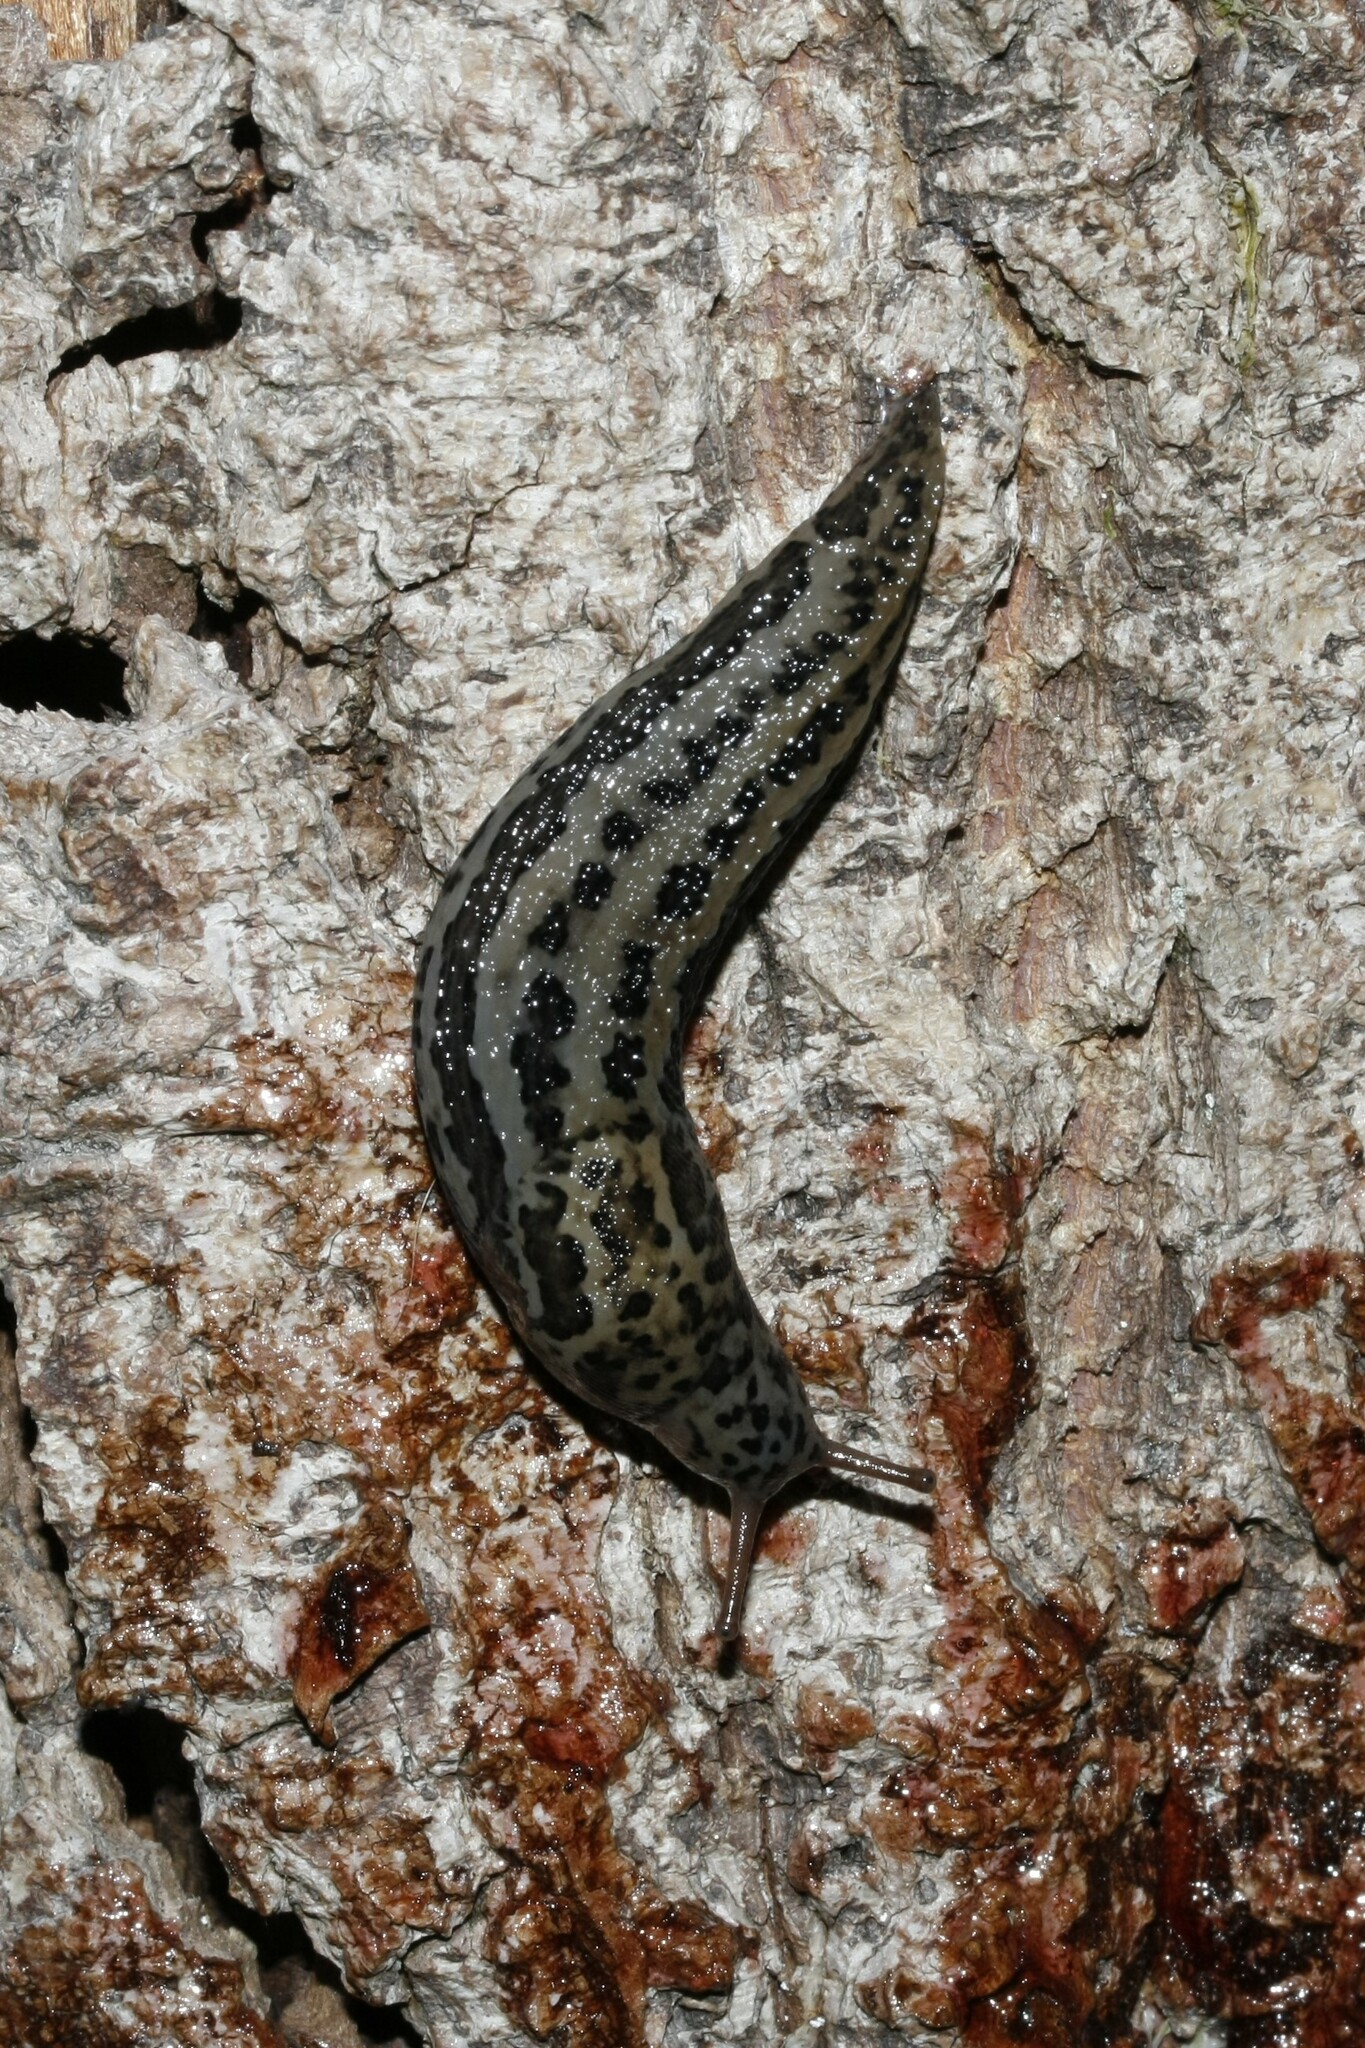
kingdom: Animalia
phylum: Mollusca
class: Gastropoda
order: Stylommatophora
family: Limacidae
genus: Limax
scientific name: Limax maximus
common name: Great grey slug
